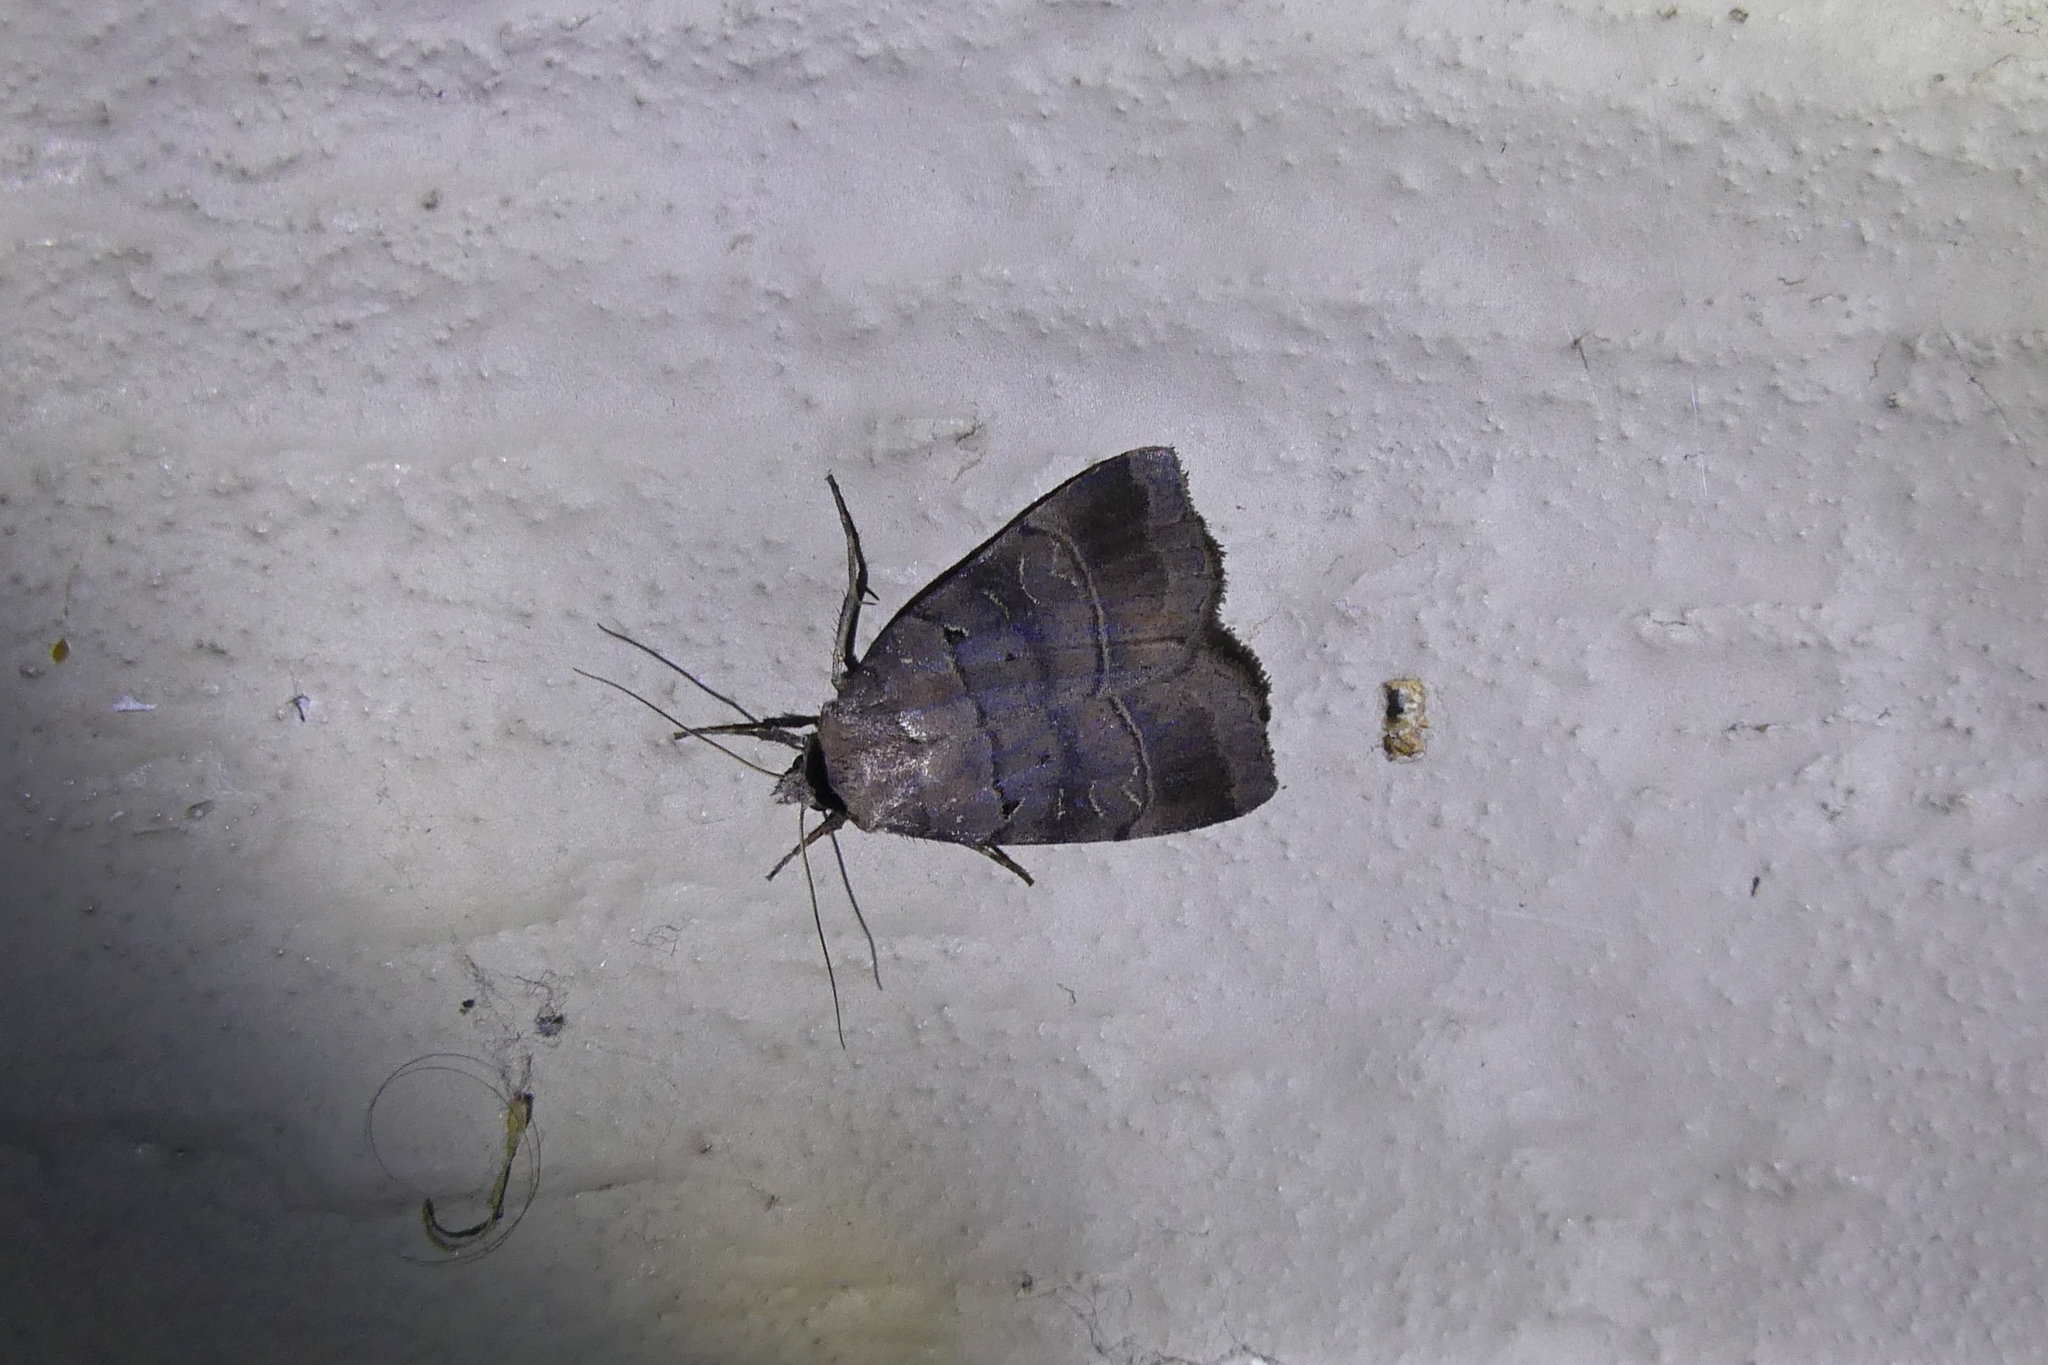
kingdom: Animalia
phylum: Arthropoda
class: Insecta
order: Lepidoptera
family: Noctuidae
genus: Agnorisma
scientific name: Agnorisma badinodis
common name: Pale-banded dart
